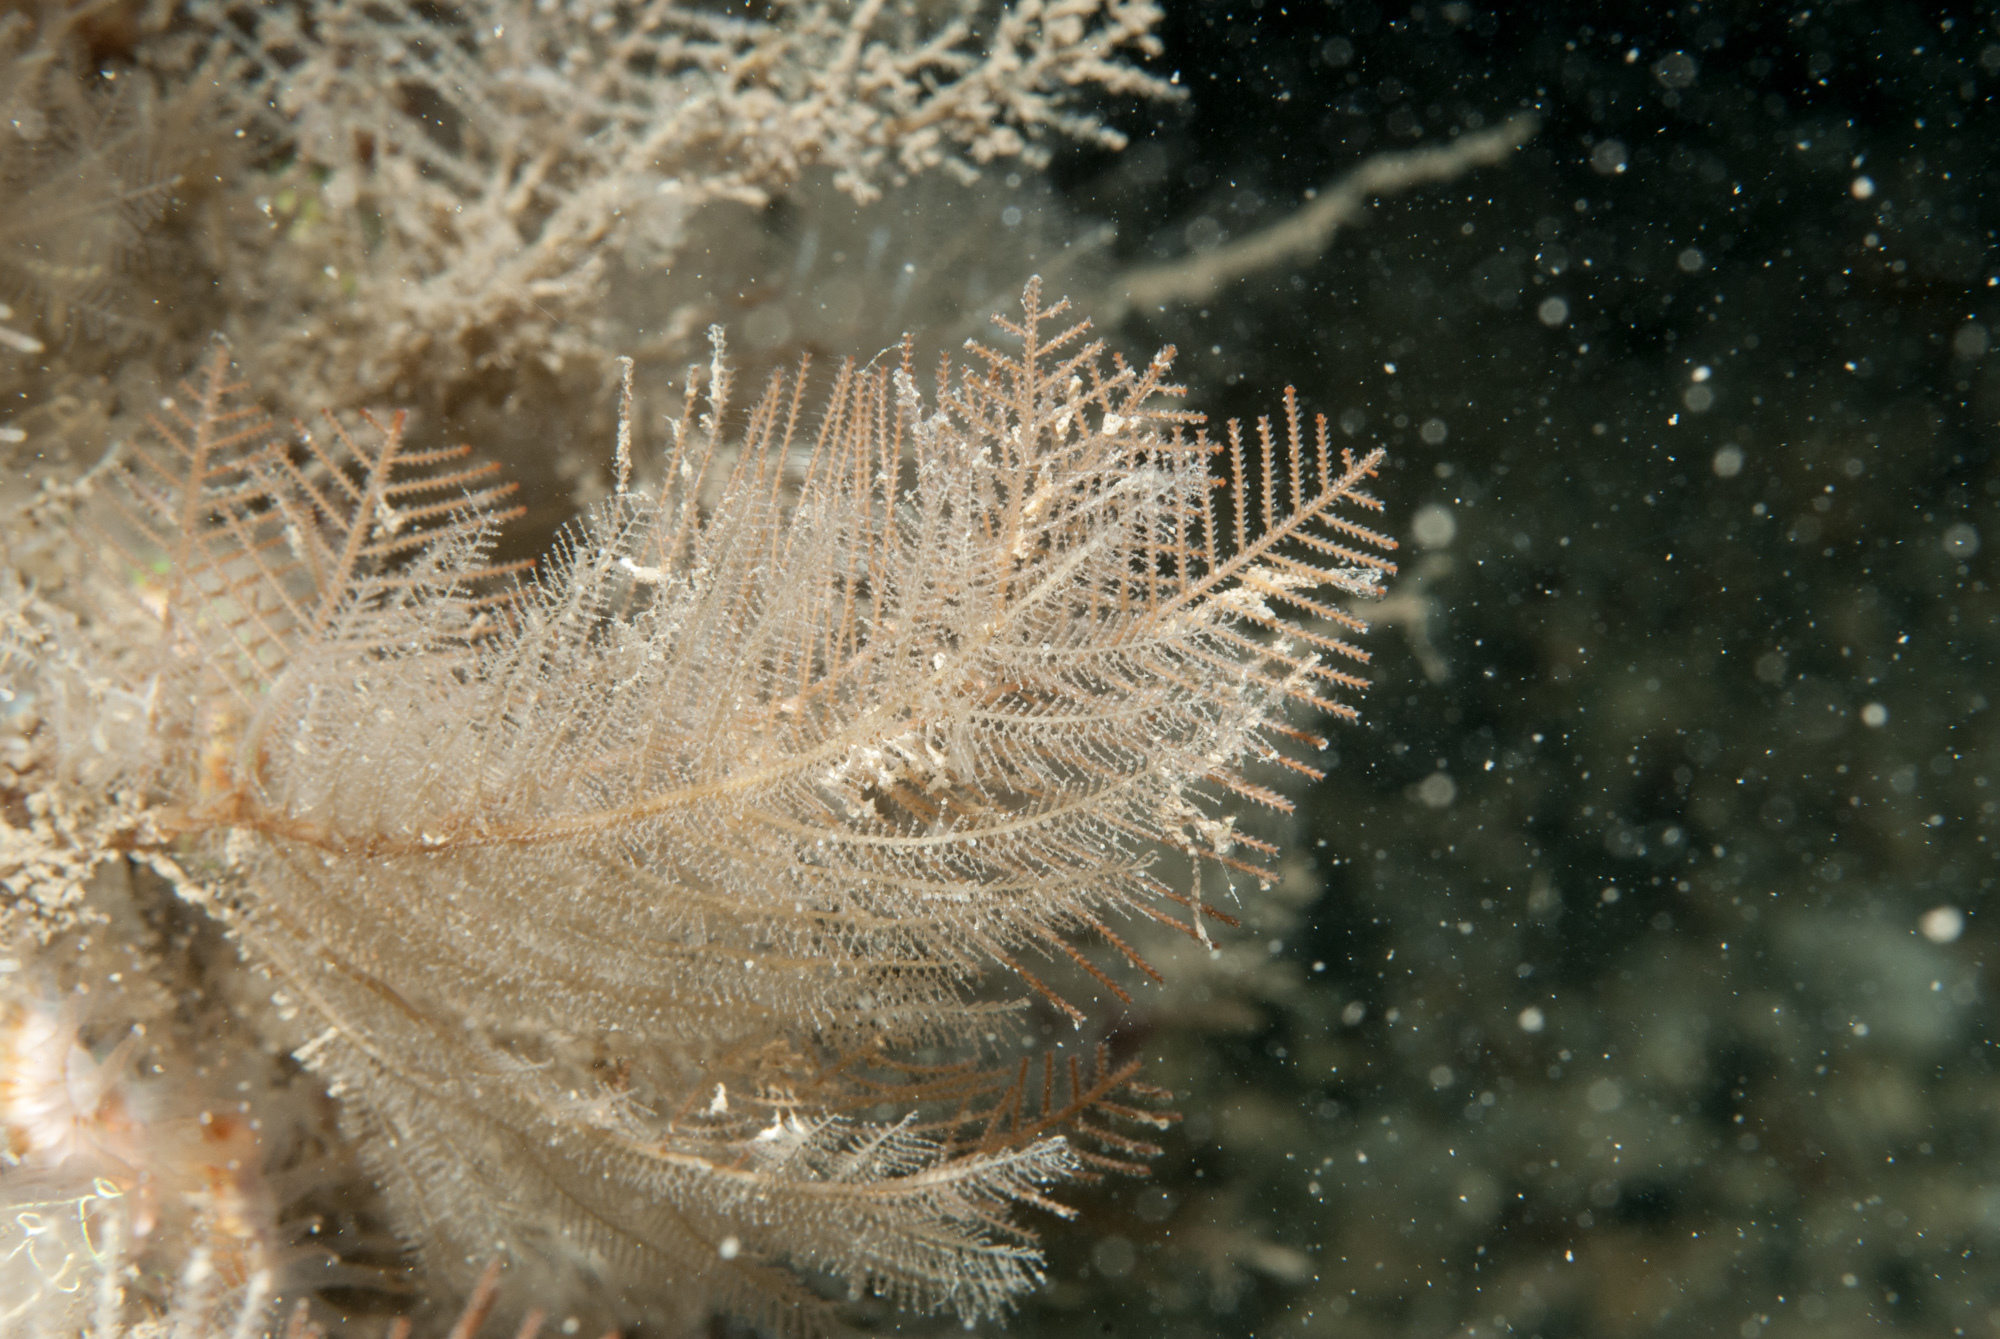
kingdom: Animalia
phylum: Cnidaria
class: Hydrozoa
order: Leptothecata
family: Sertulariidae
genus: Diphasia
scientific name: Diphasia alata
